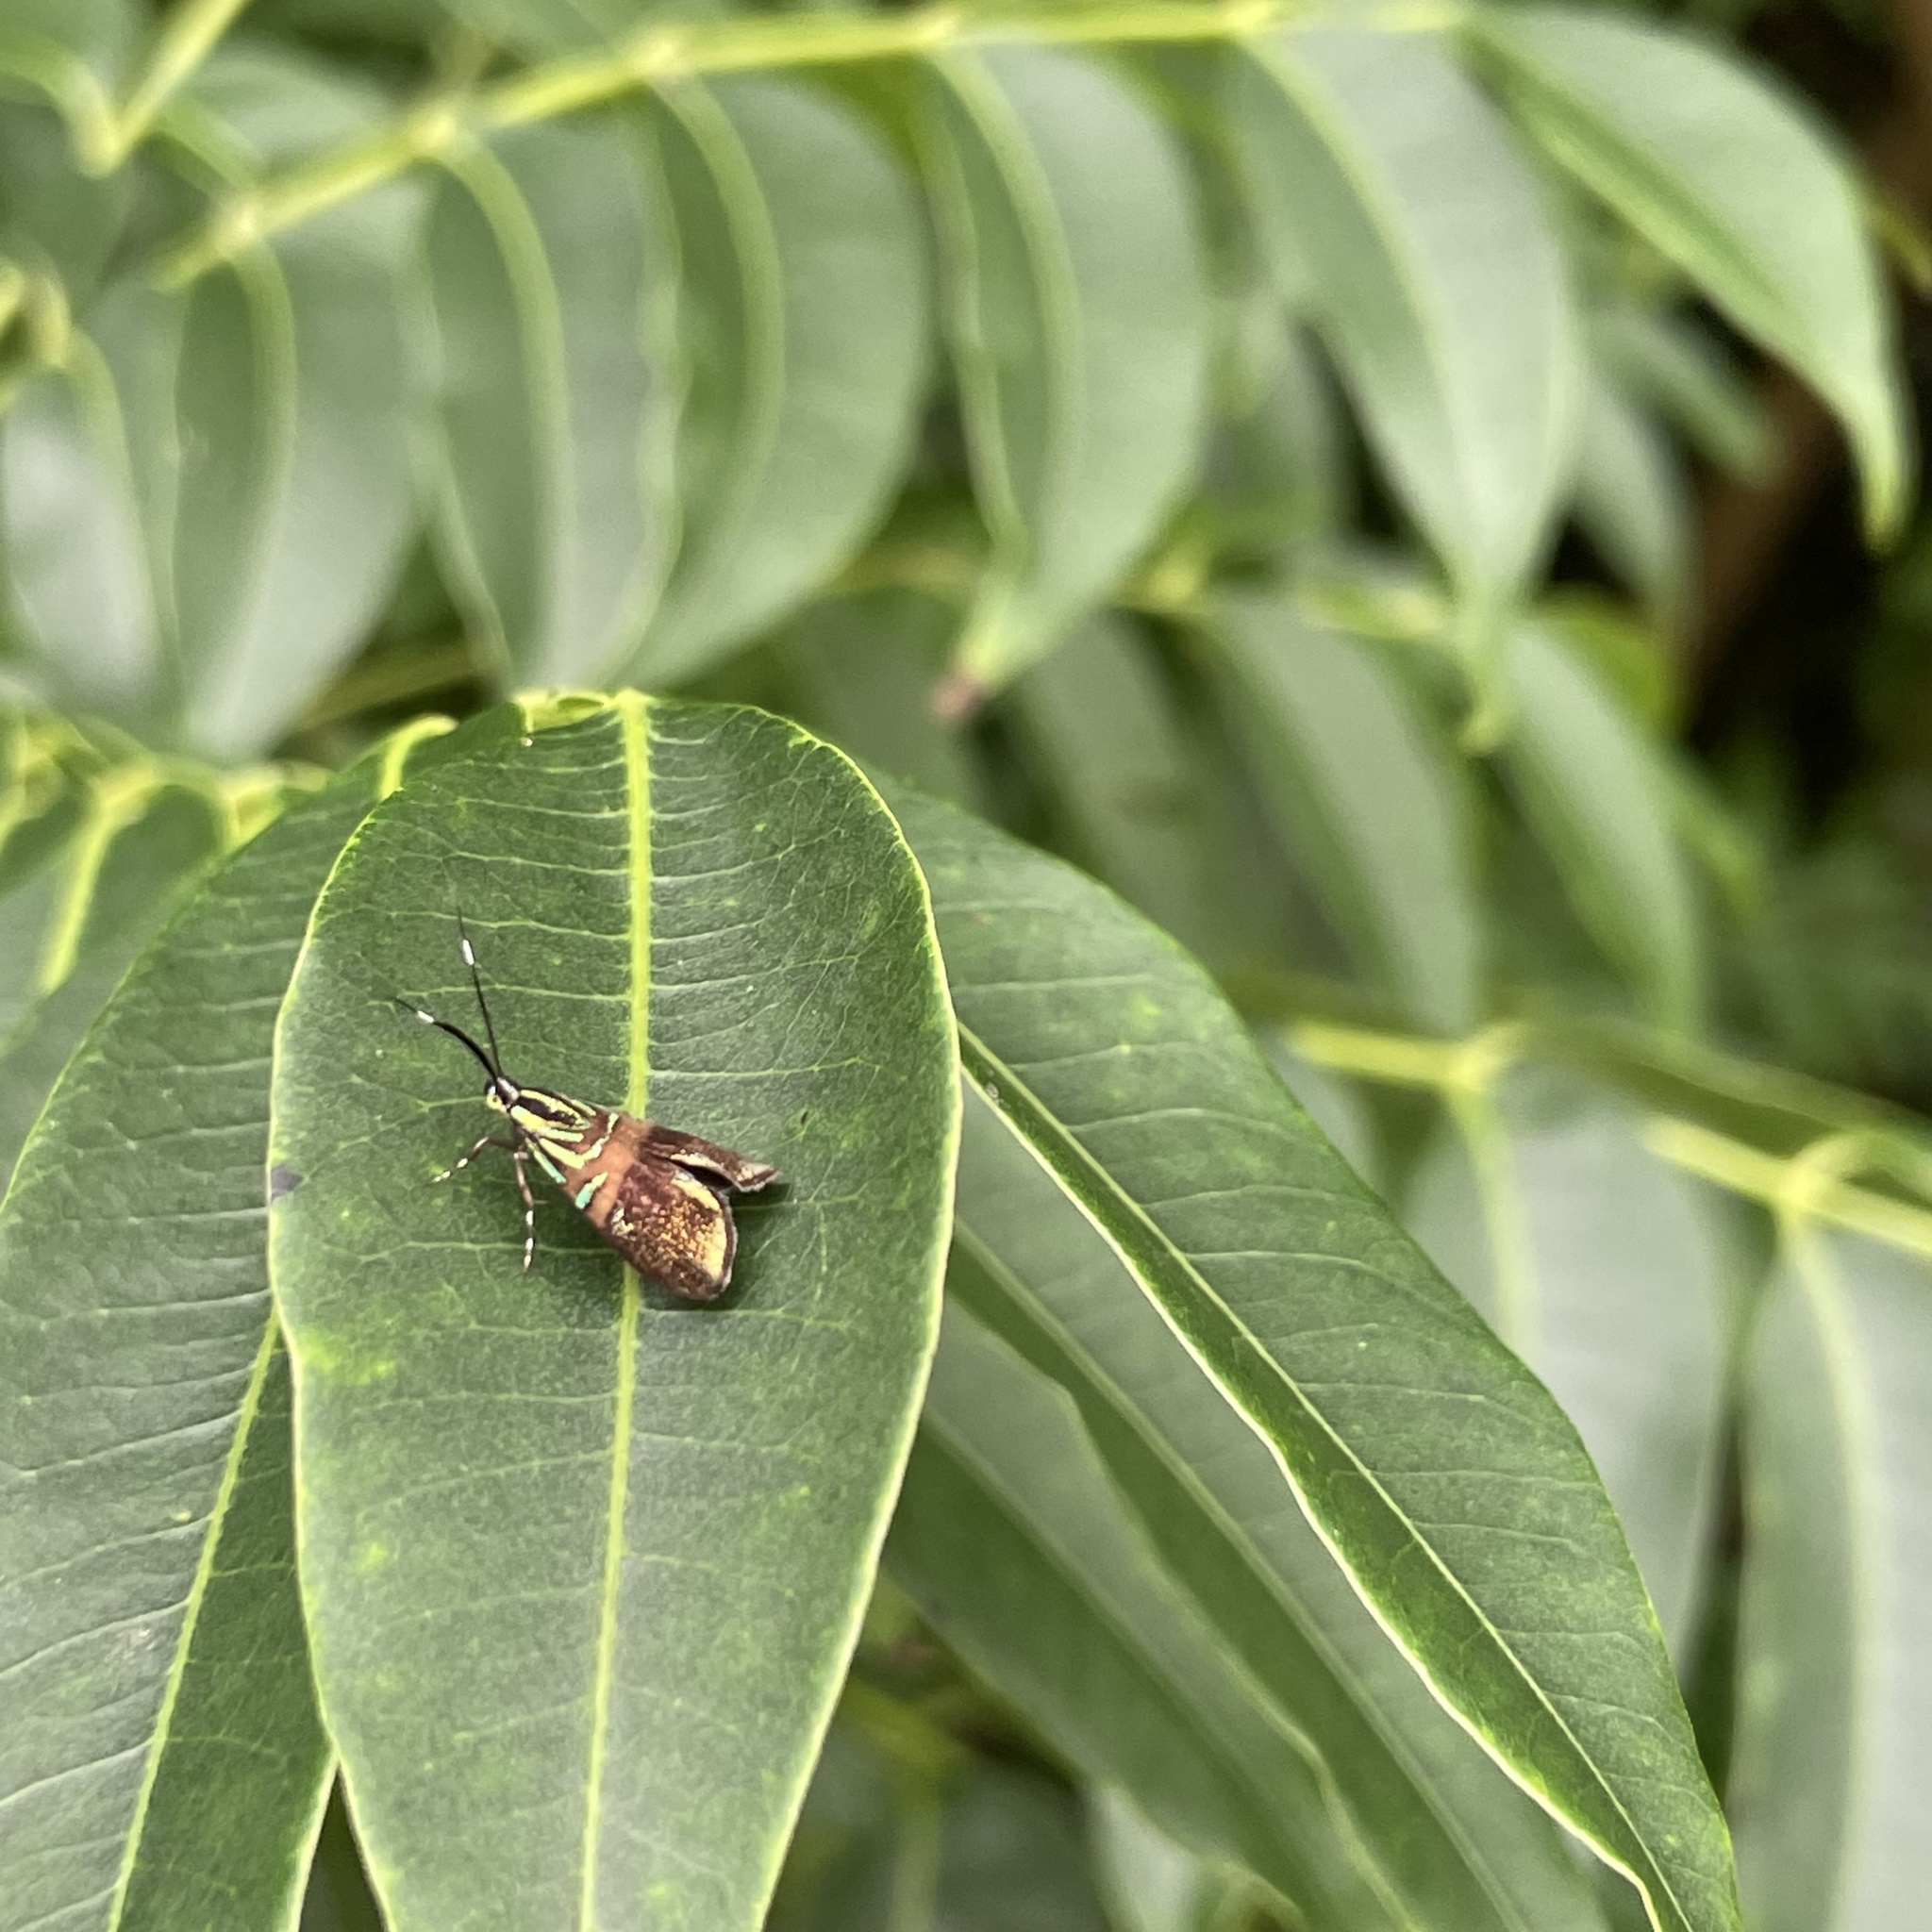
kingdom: Animalia
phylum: Arthropoda
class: Insecta
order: Lepidoptera
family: Choreutidae
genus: Saptha
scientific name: Saptha divitiosa
